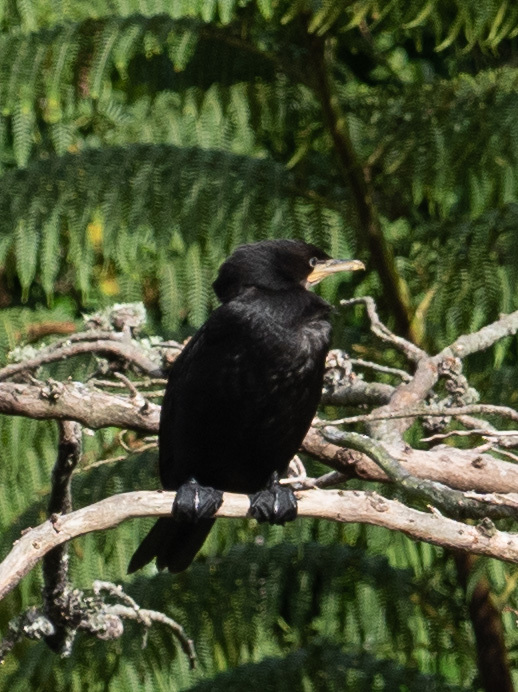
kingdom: Animalia
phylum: Chordata
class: Aves
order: Suliformes
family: Phalacrocoracidae
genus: Microcarbo
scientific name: Microcarbo melanoleucos
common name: Little pied cormorant
